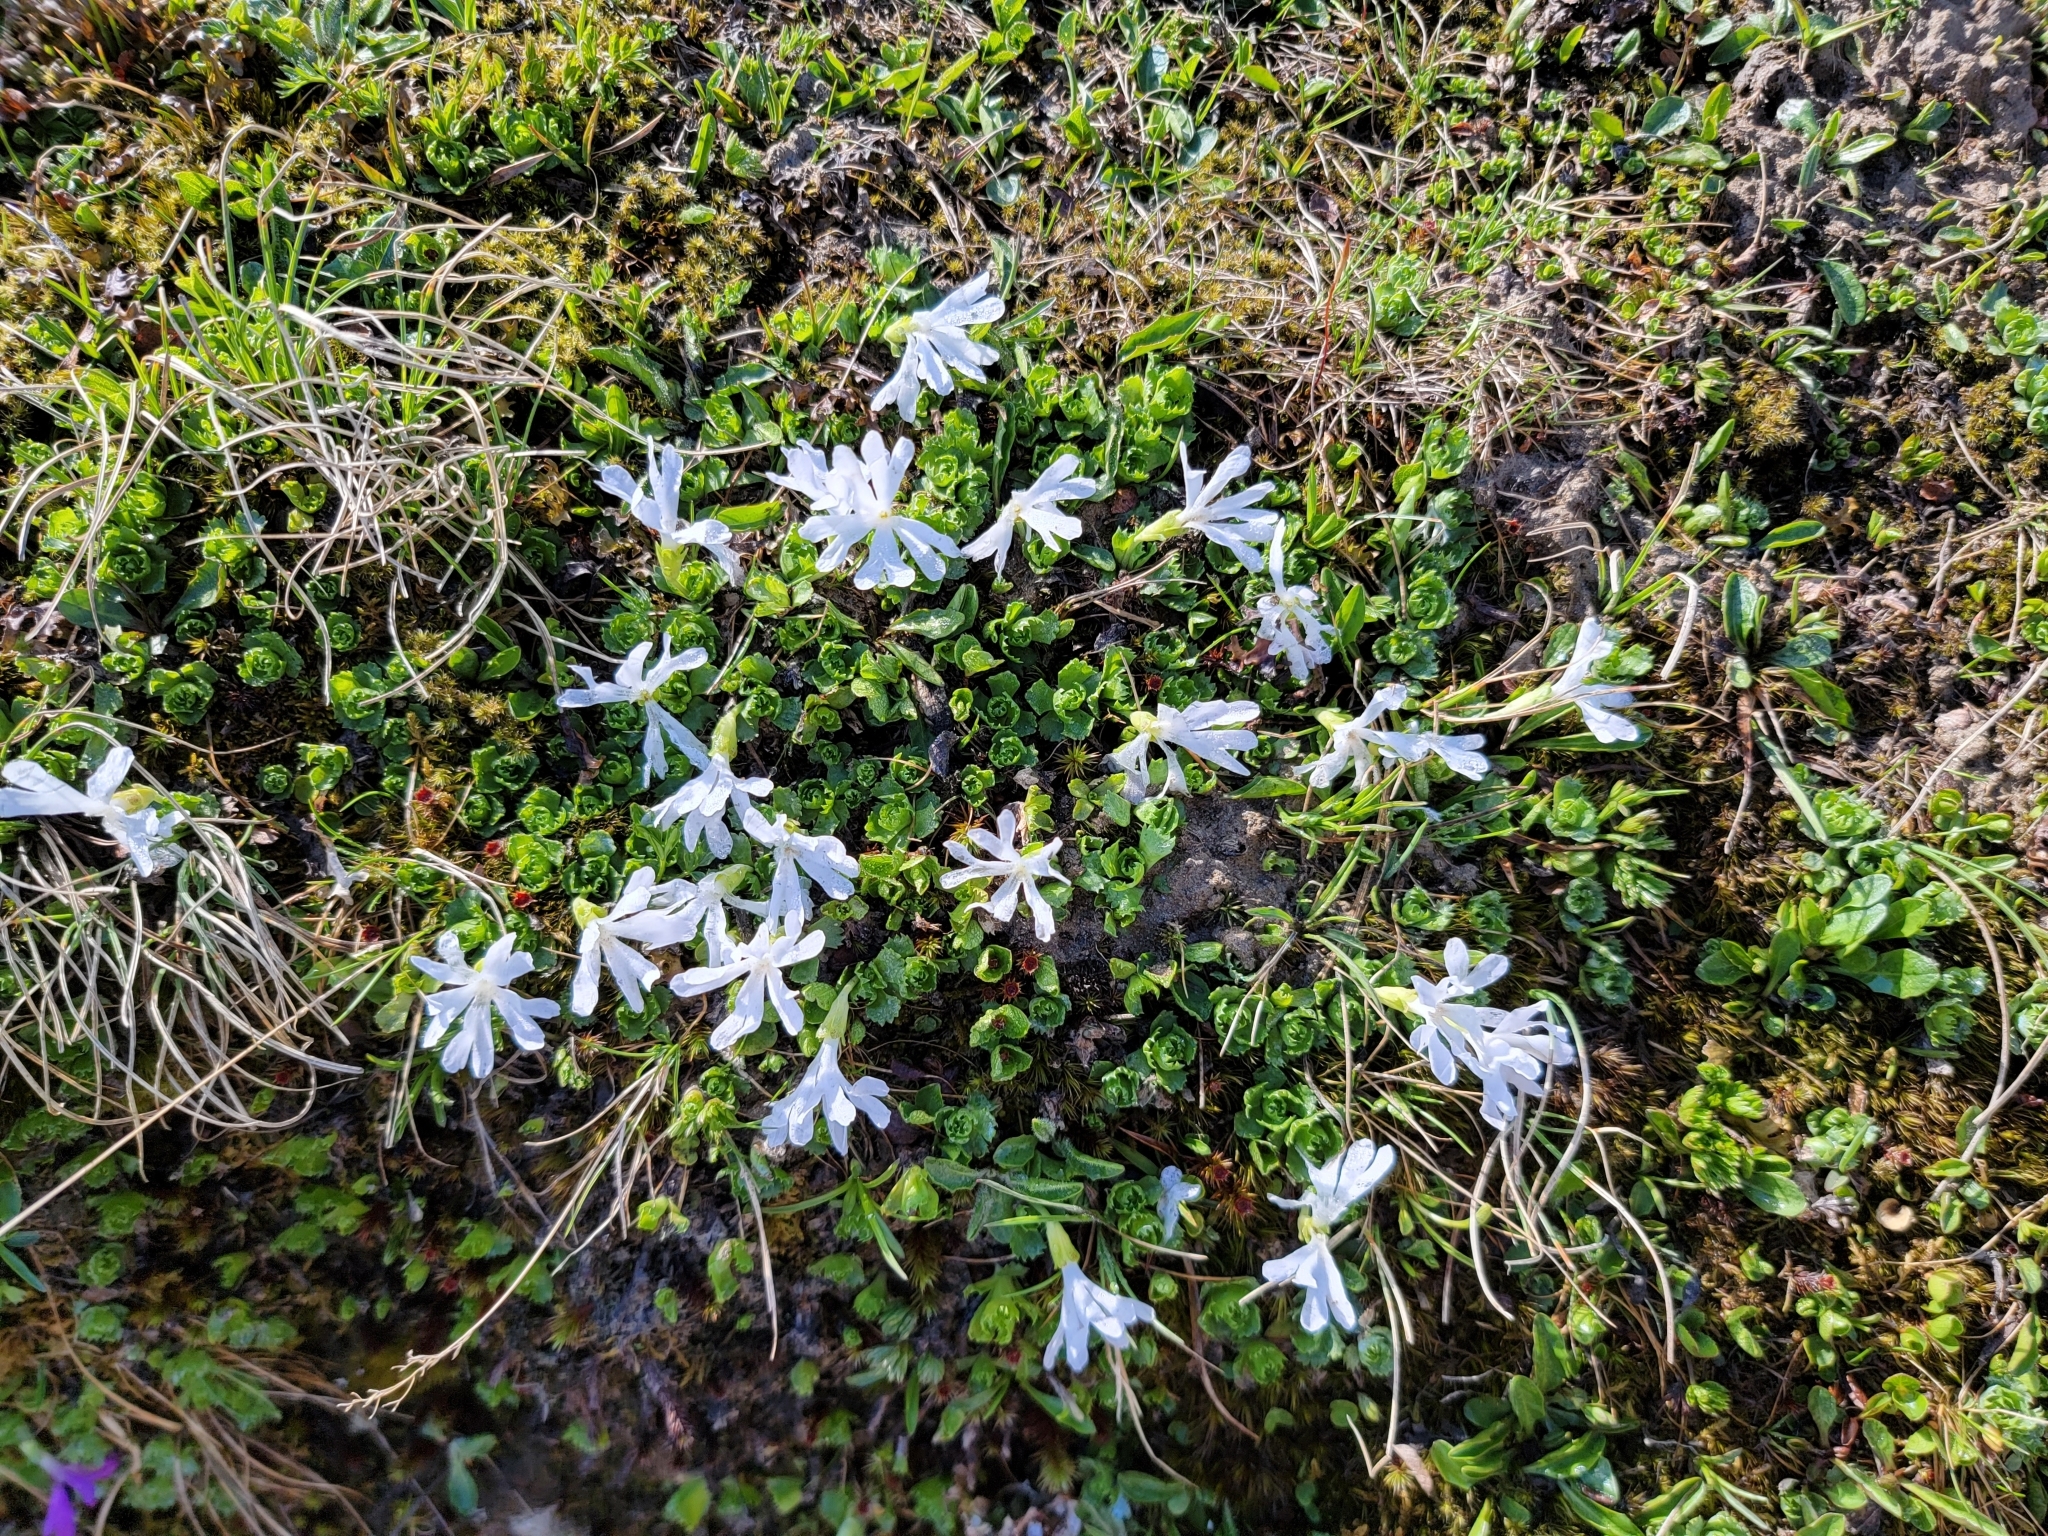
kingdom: Plantae
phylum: Tracheophyta
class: Magnoliopsida
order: Ericales
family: Primulaceae
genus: Primula
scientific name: Primula minima
